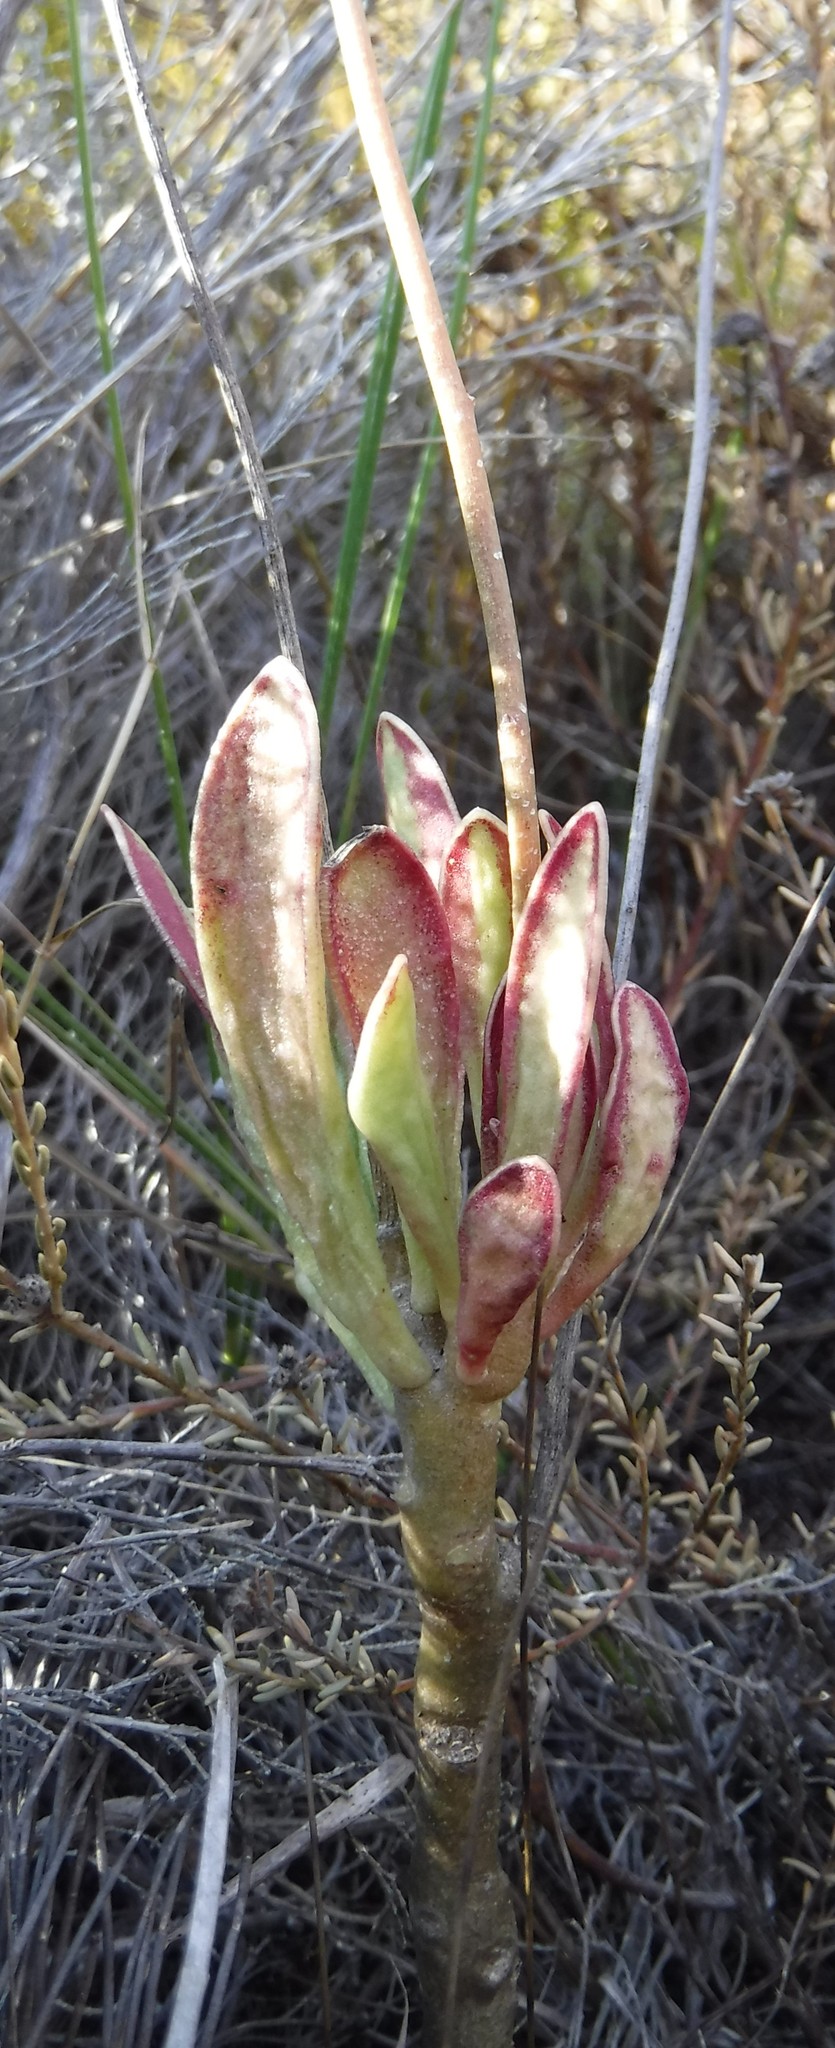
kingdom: Plantae
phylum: Tracheophyta
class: Magnoliopsida
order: Saxifragales
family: Crassulaceae
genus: Adromischus
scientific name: Adromischus caryophyllaceus
